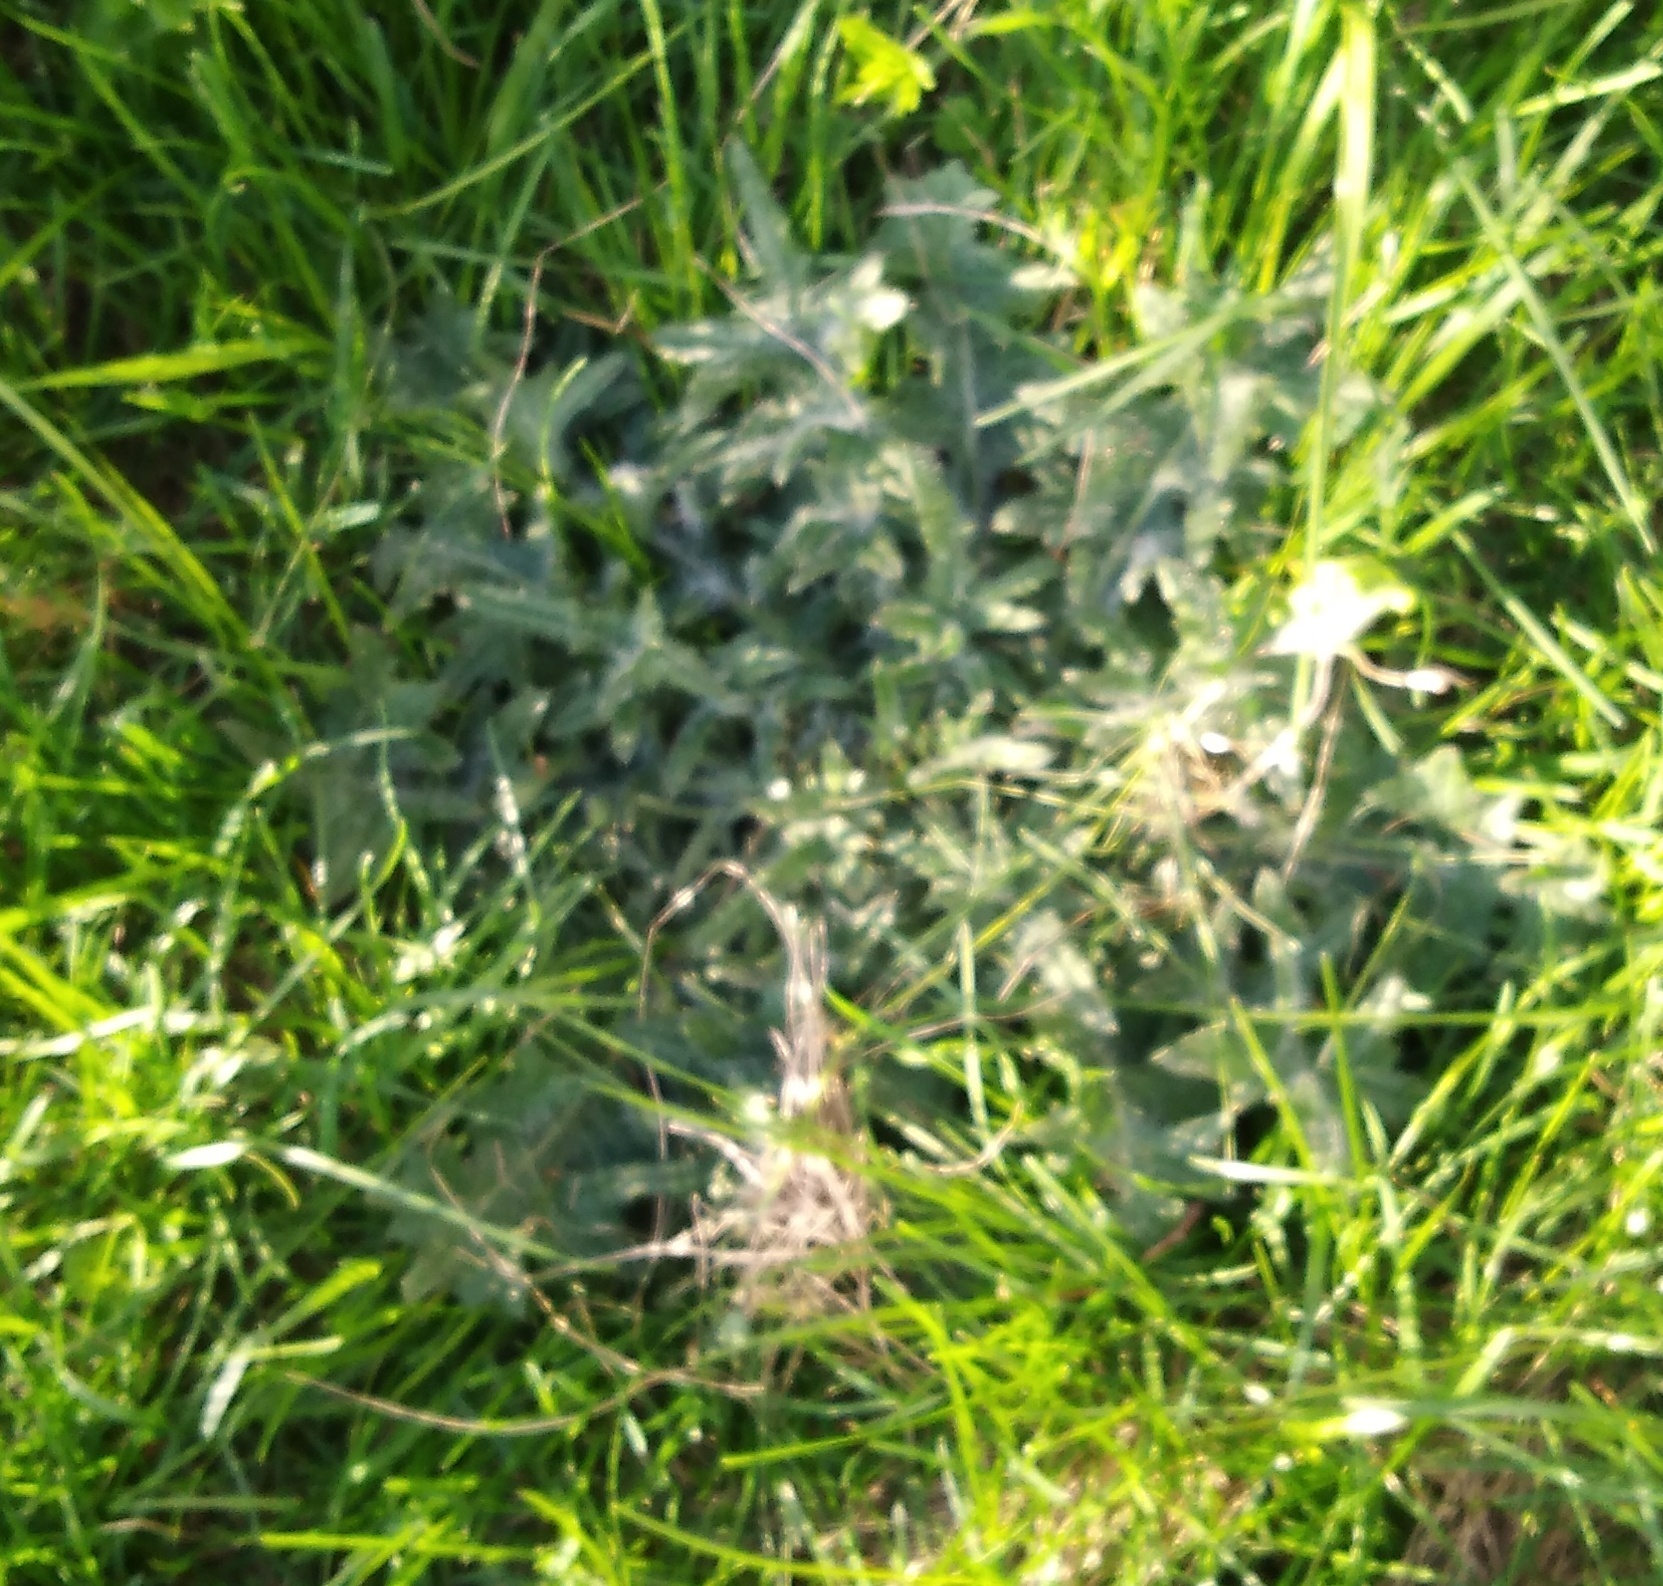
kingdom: Plantae
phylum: Tracheophyta
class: Magnoliopsida
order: Asterales
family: Asteraceae
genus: Cirsium
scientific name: Cirsium vulgare
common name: Bull thistle
